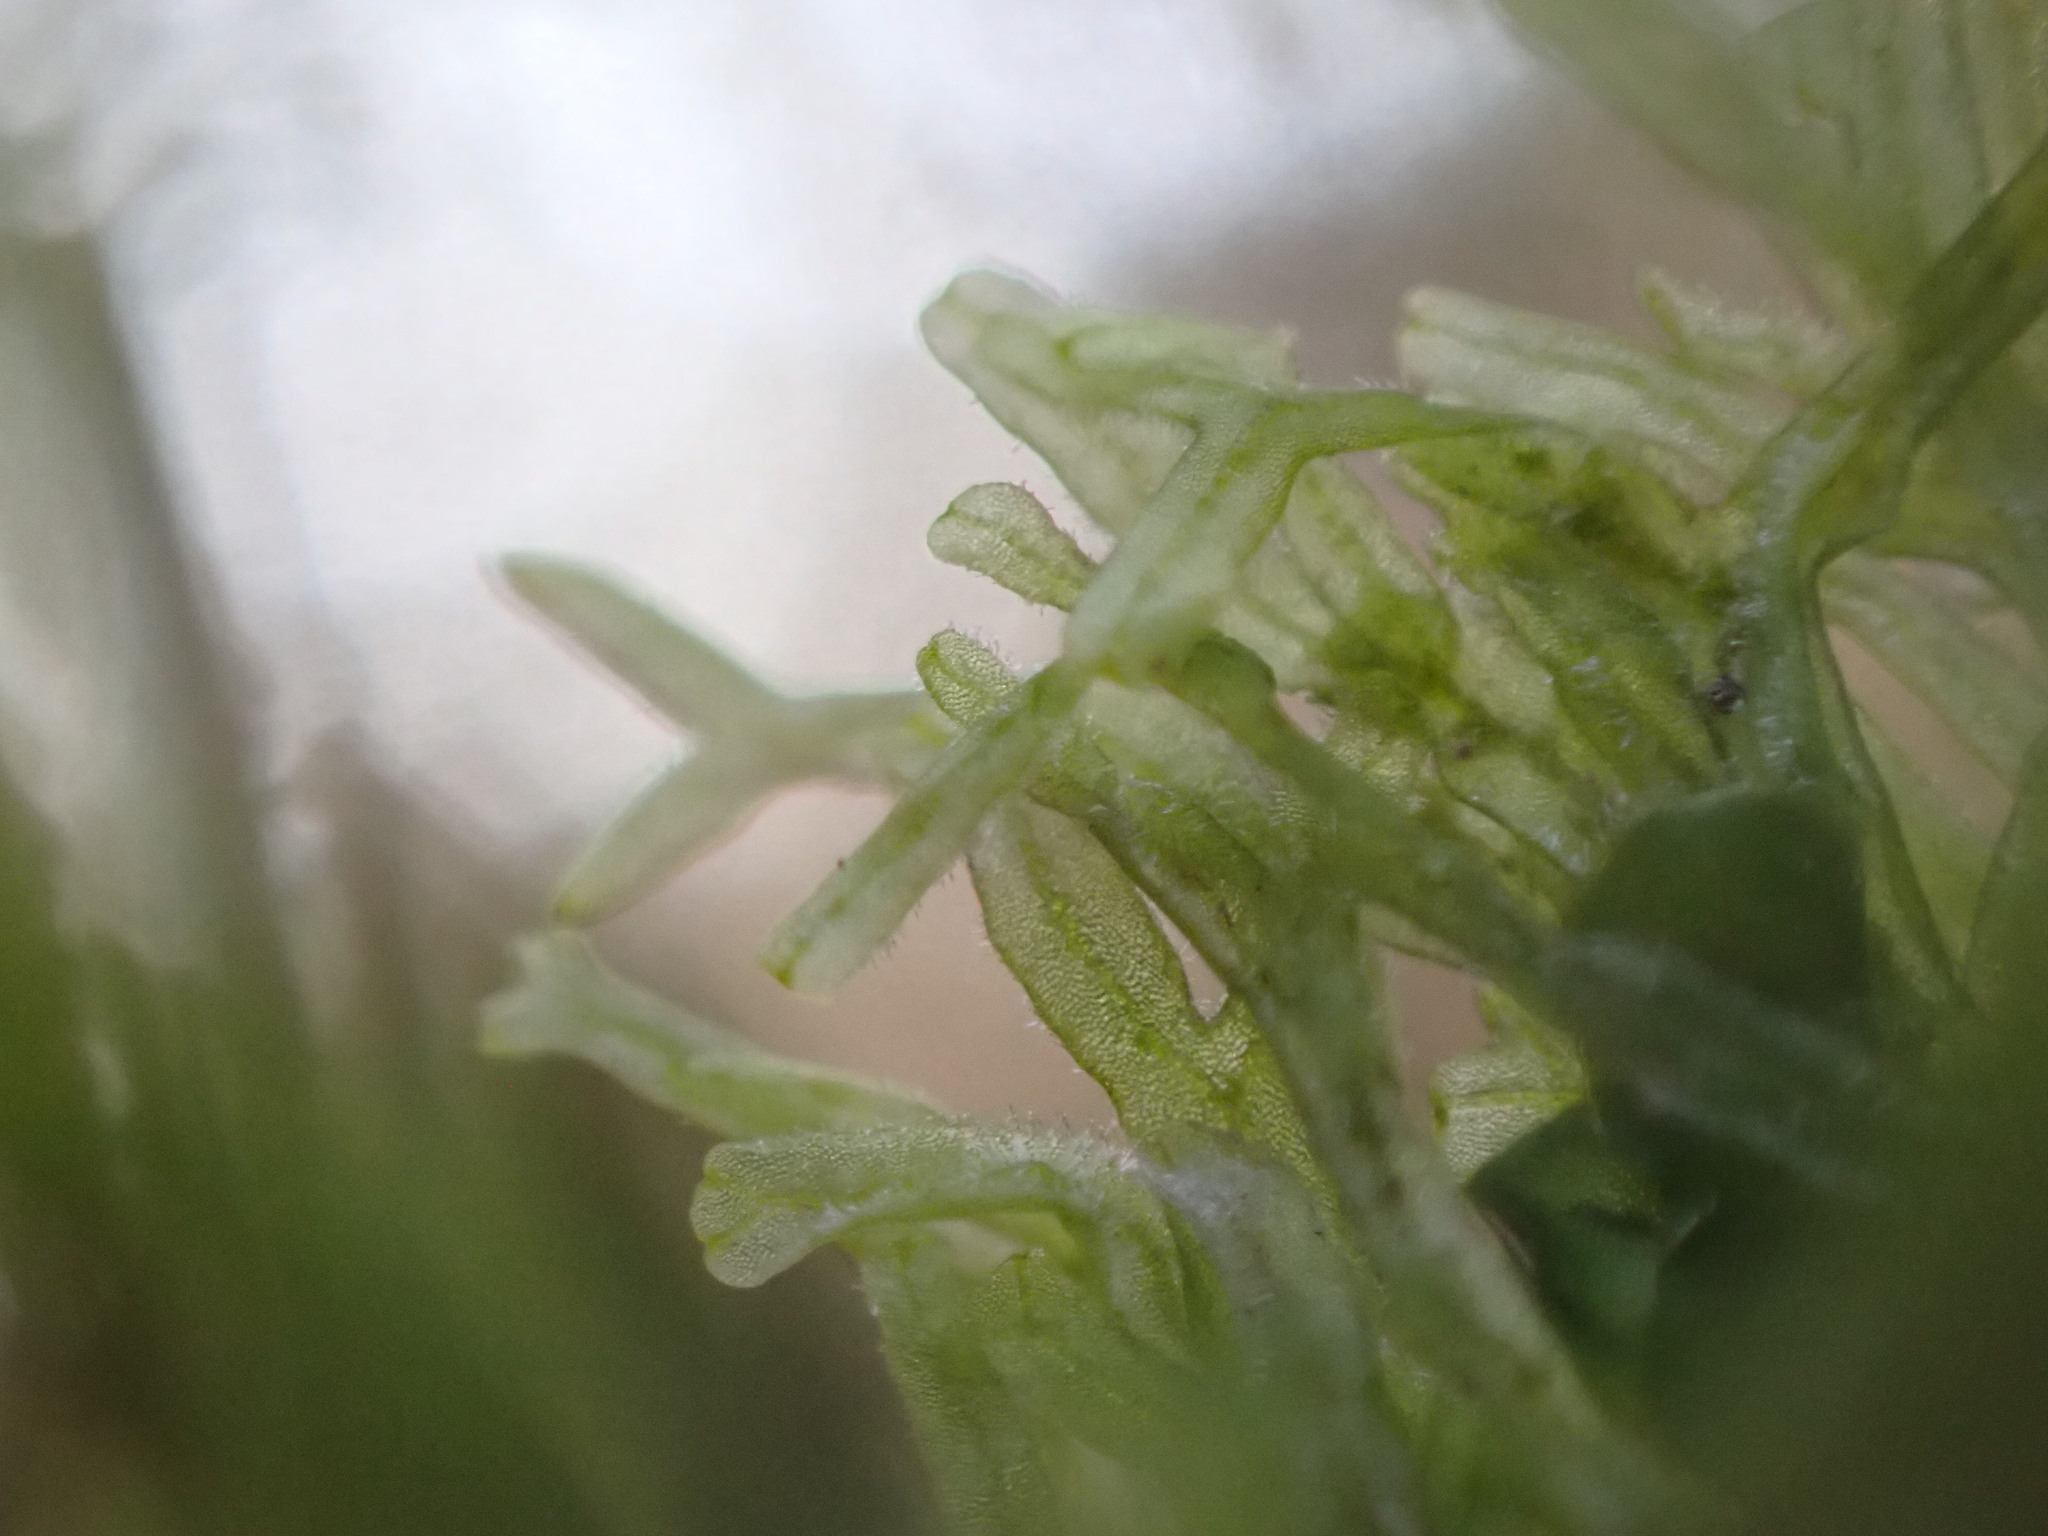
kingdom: Plantae
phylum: Marchantiophyta
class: Jungermanniopsida
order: Metzgeriales
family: Metzgeriaceae
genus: Metzgeria
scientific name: Metzgeria conjugata
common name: Rock veilwort
